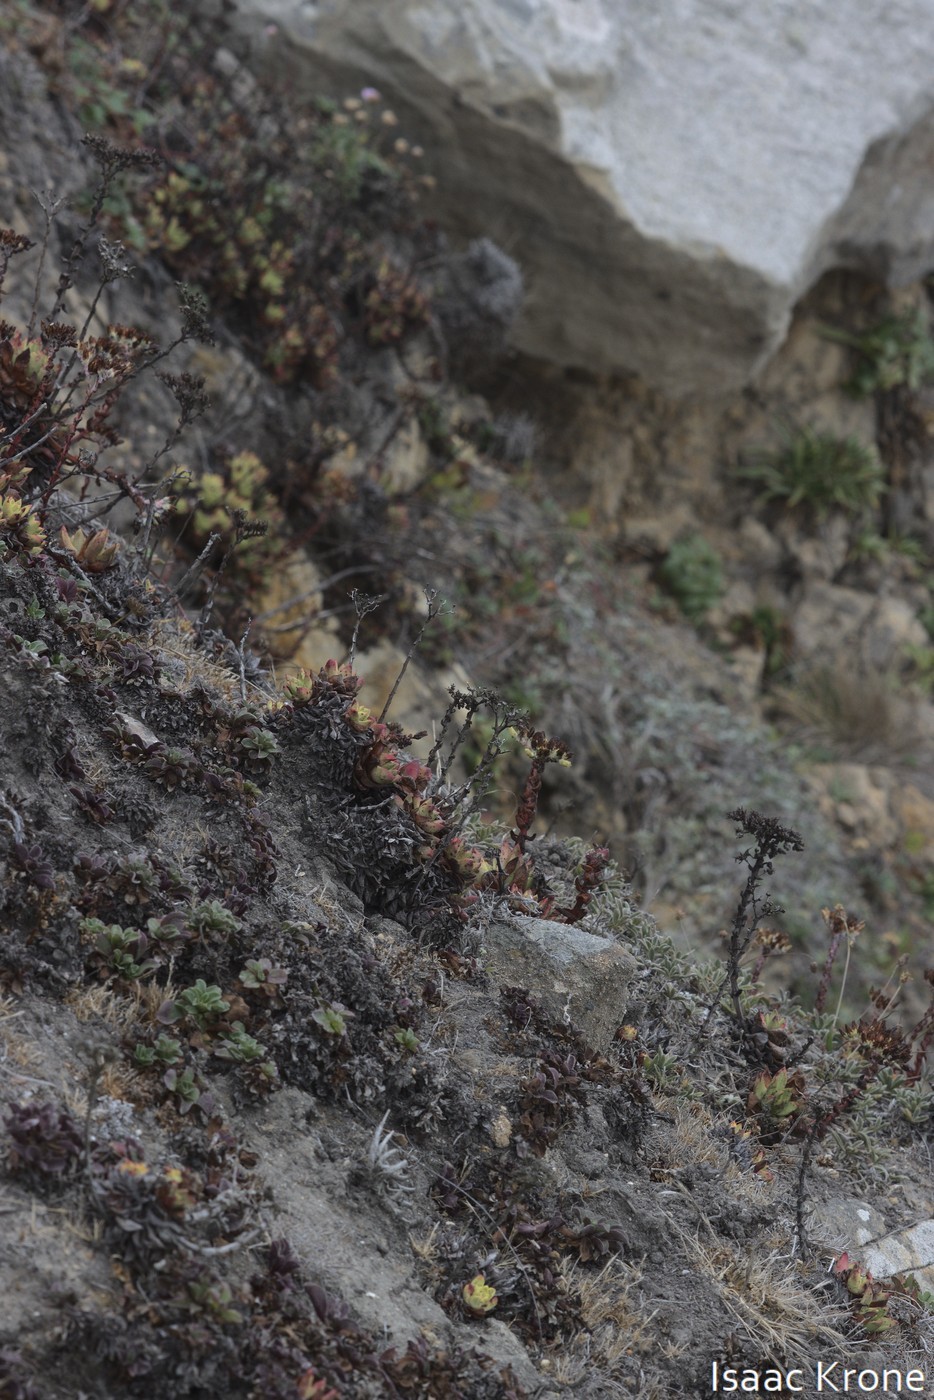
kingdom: Plantae
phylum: Tracheophyta
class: Magnoliopsida
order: Saxifragales
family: Crassulaceae
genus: Dudleya
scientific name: Dudleya farinosa
